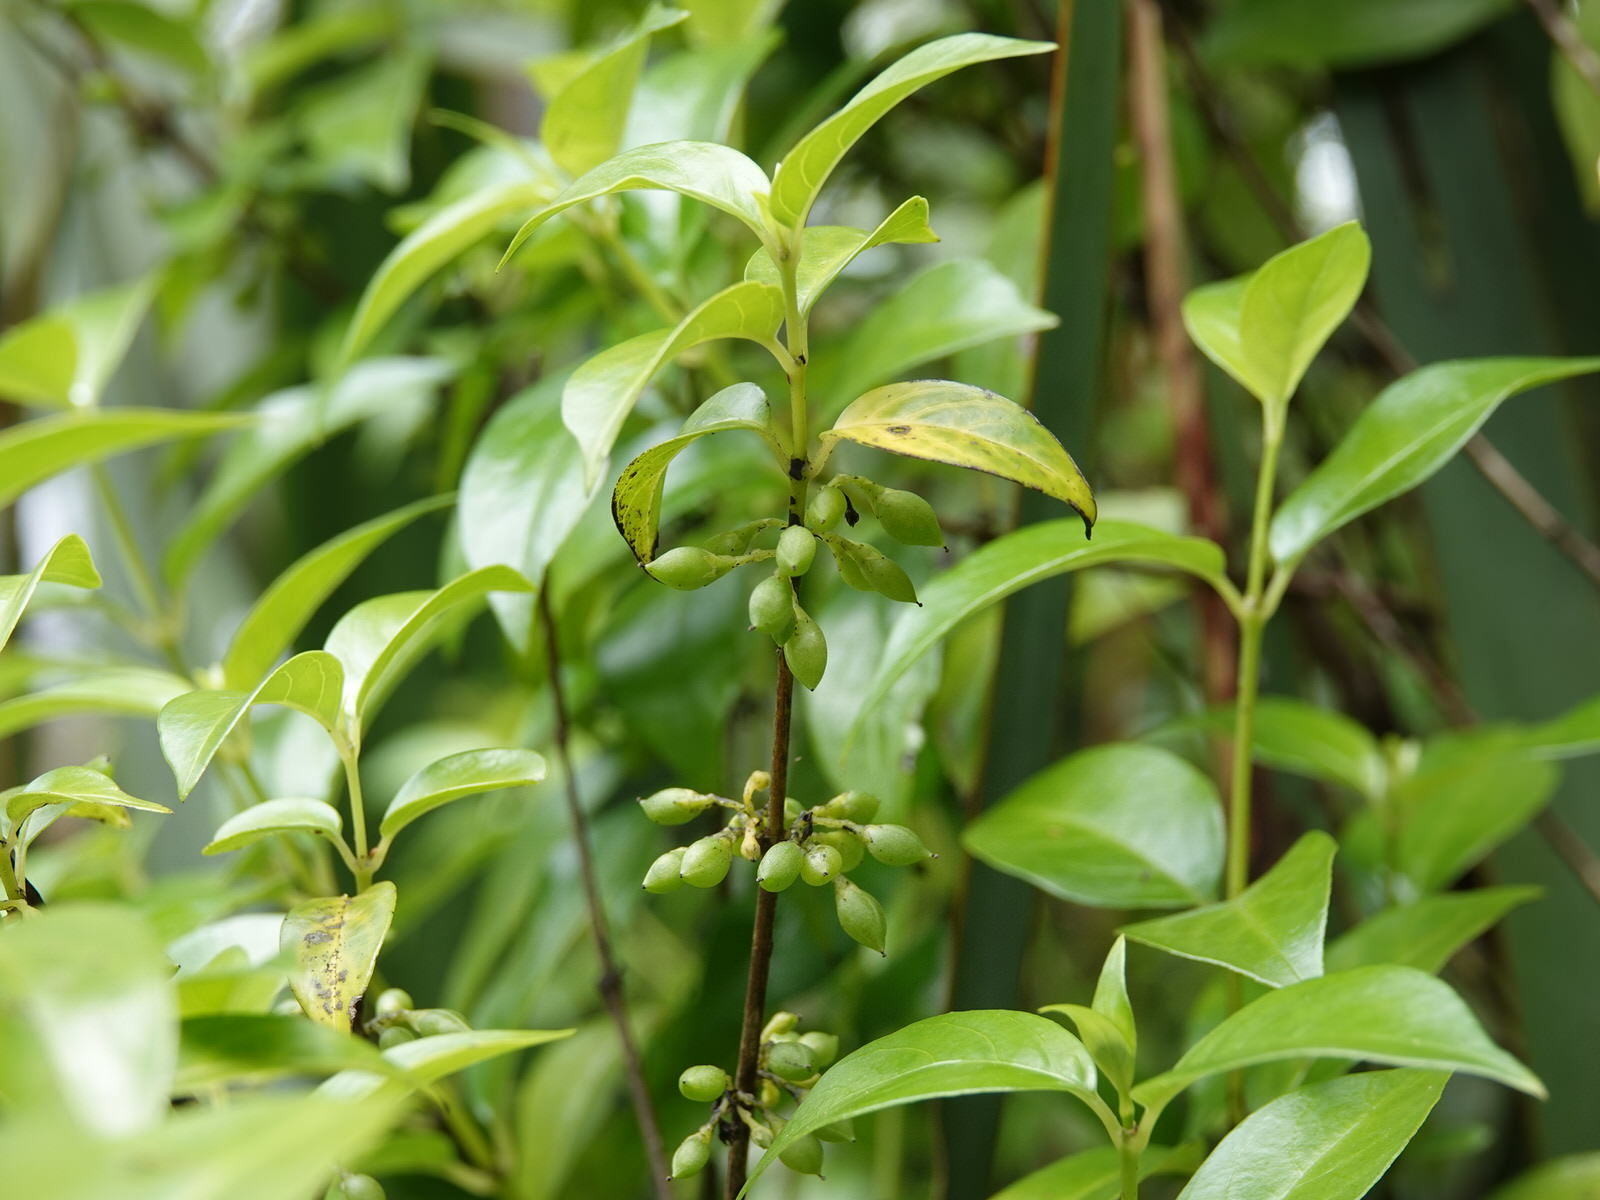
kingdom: Plantae
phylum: Tracheophyta
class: Magnoliopsida
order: Gentianales
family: Loganiaceae
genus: Geniostoma
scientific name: Geniostoma ligustrifolium
